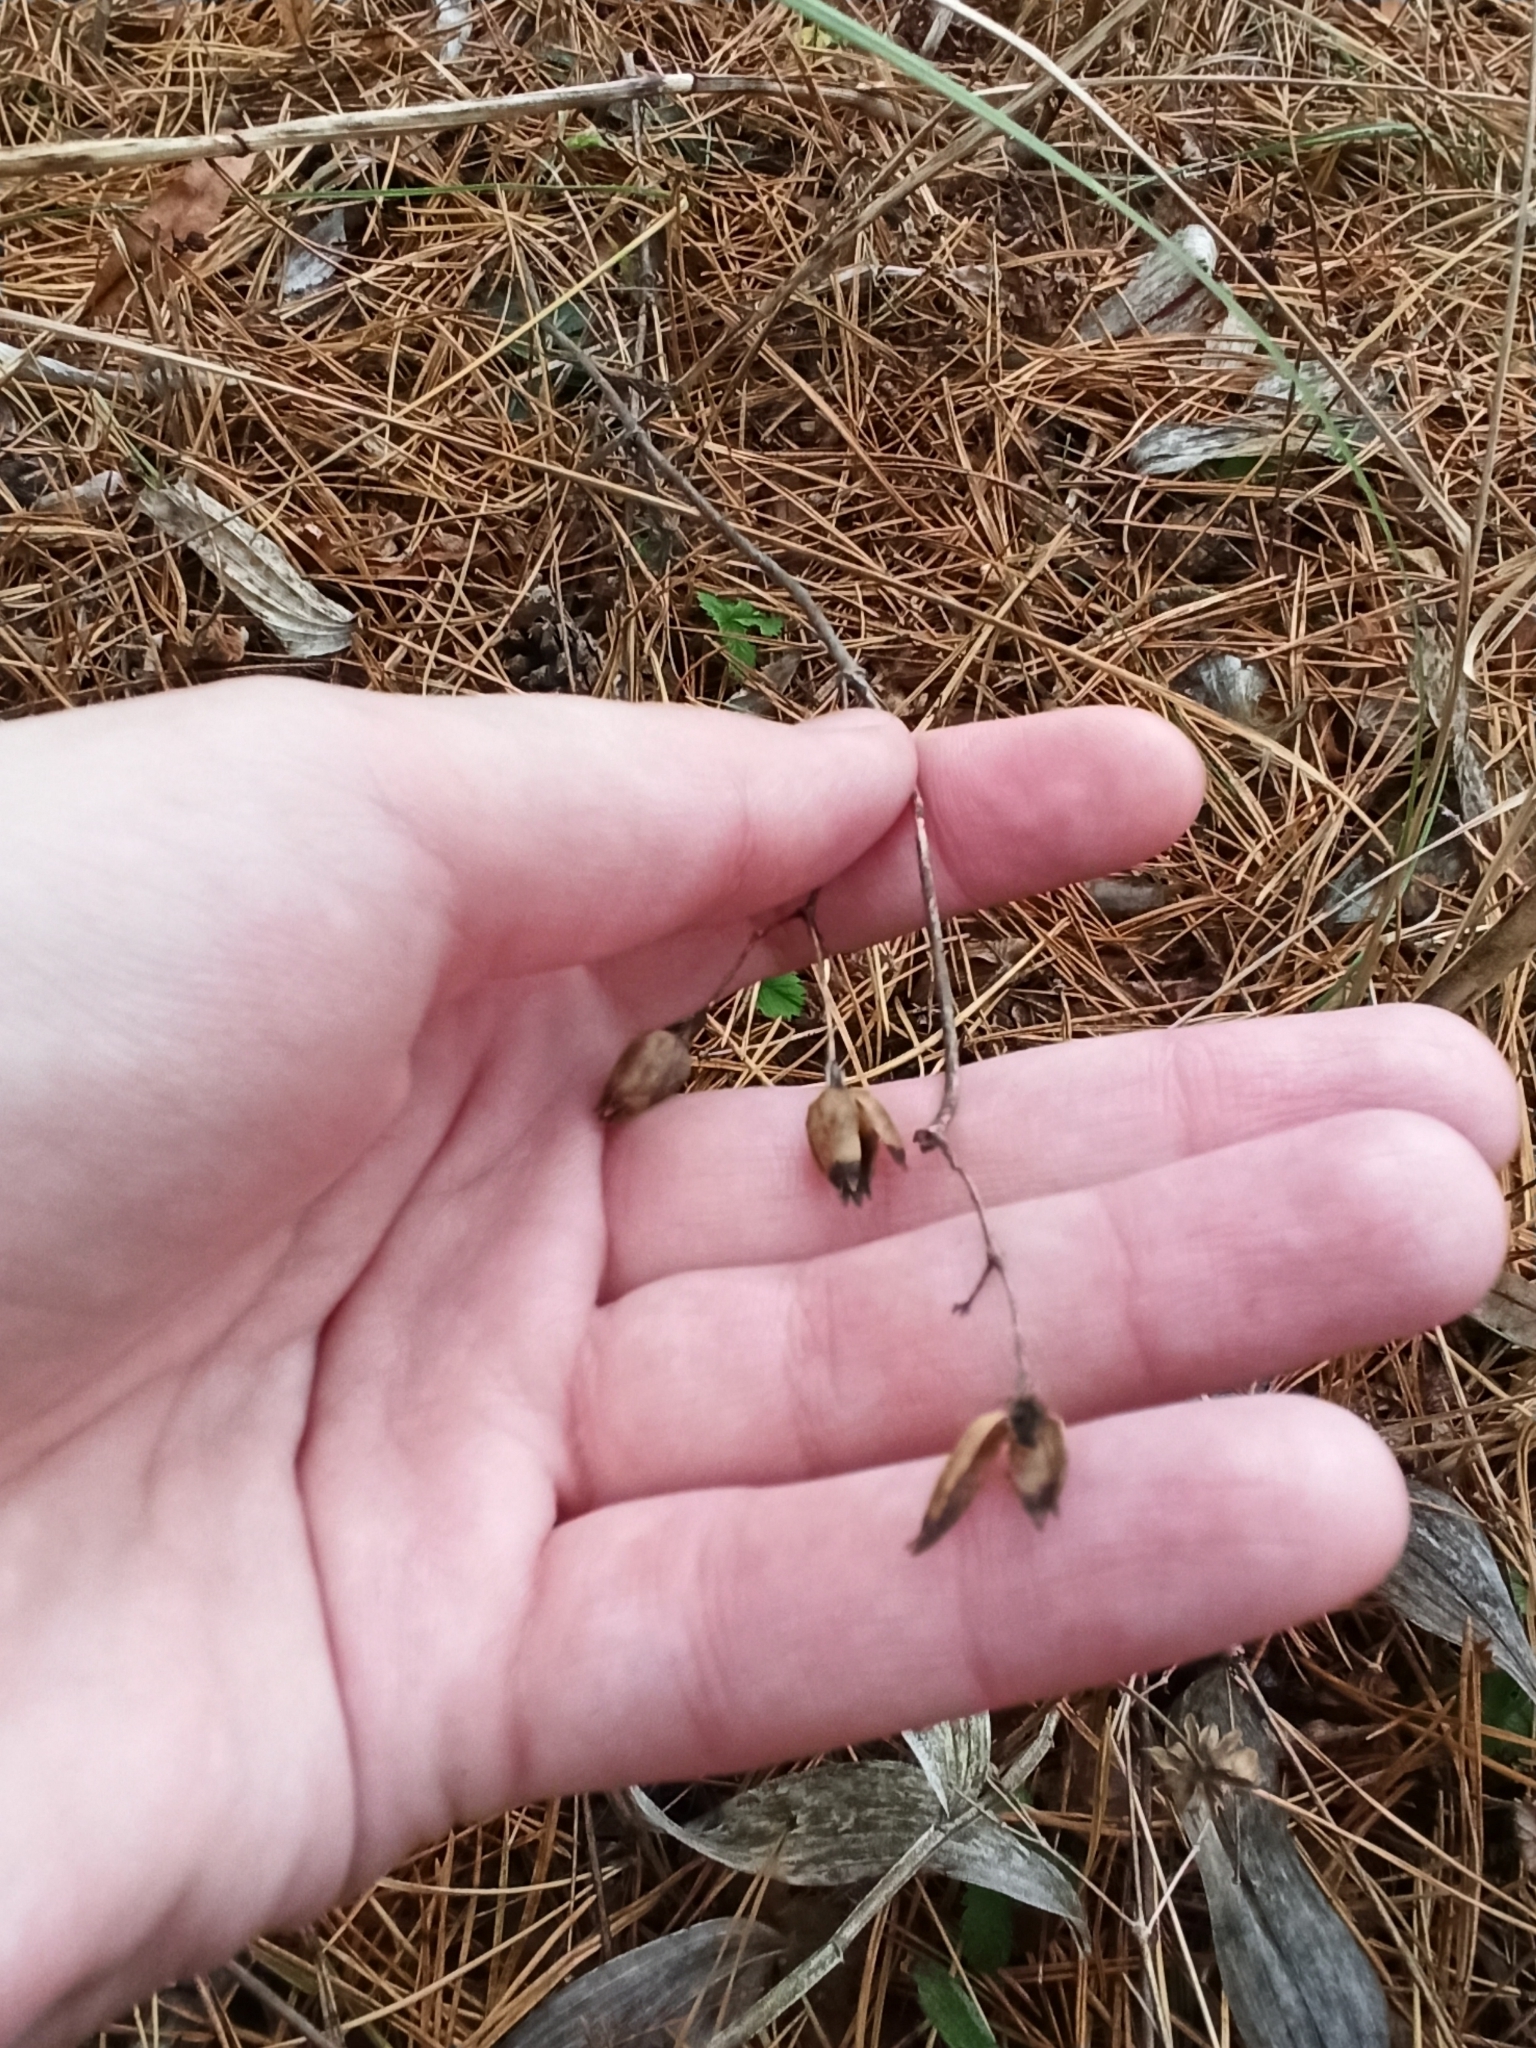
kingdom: Plantae
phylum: Tracheophyta
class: Magnoliopsida
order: Caryophyllales
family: Caryophyllaceae
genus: Silene
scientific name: Silene nutans
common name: Nottingham catchfly
